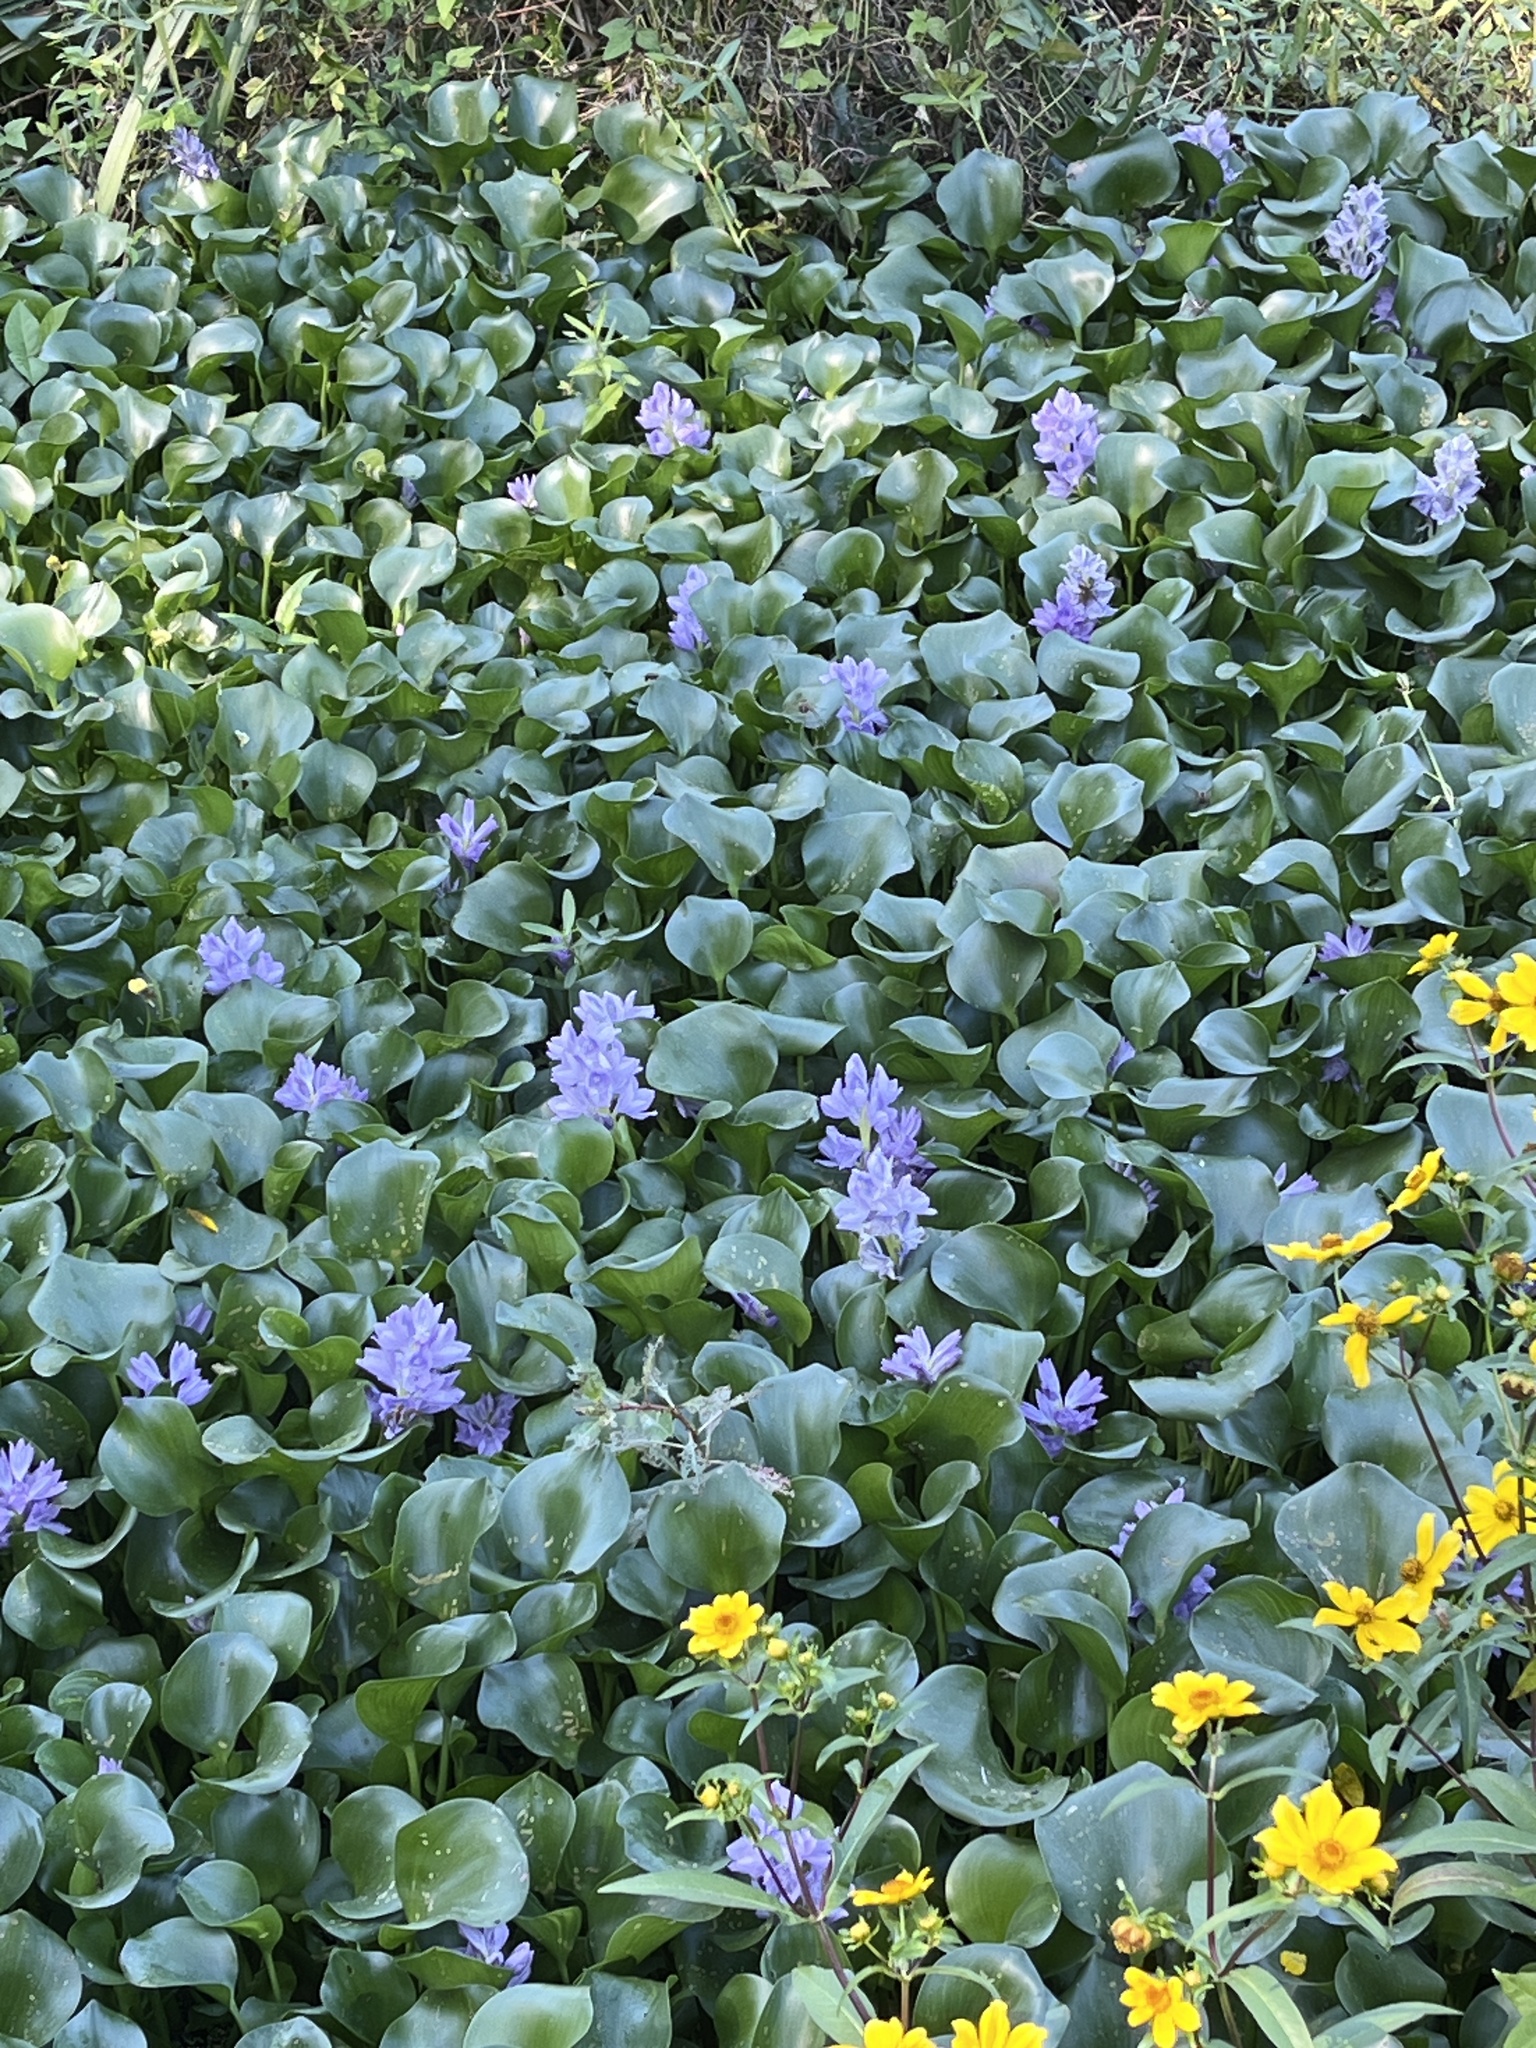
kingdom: Plantae
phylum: Tracheophyta
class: Liliopsida
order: Commelinales
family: Pontederiaceae
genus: Pontederia
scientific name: Pontederia crassipes
